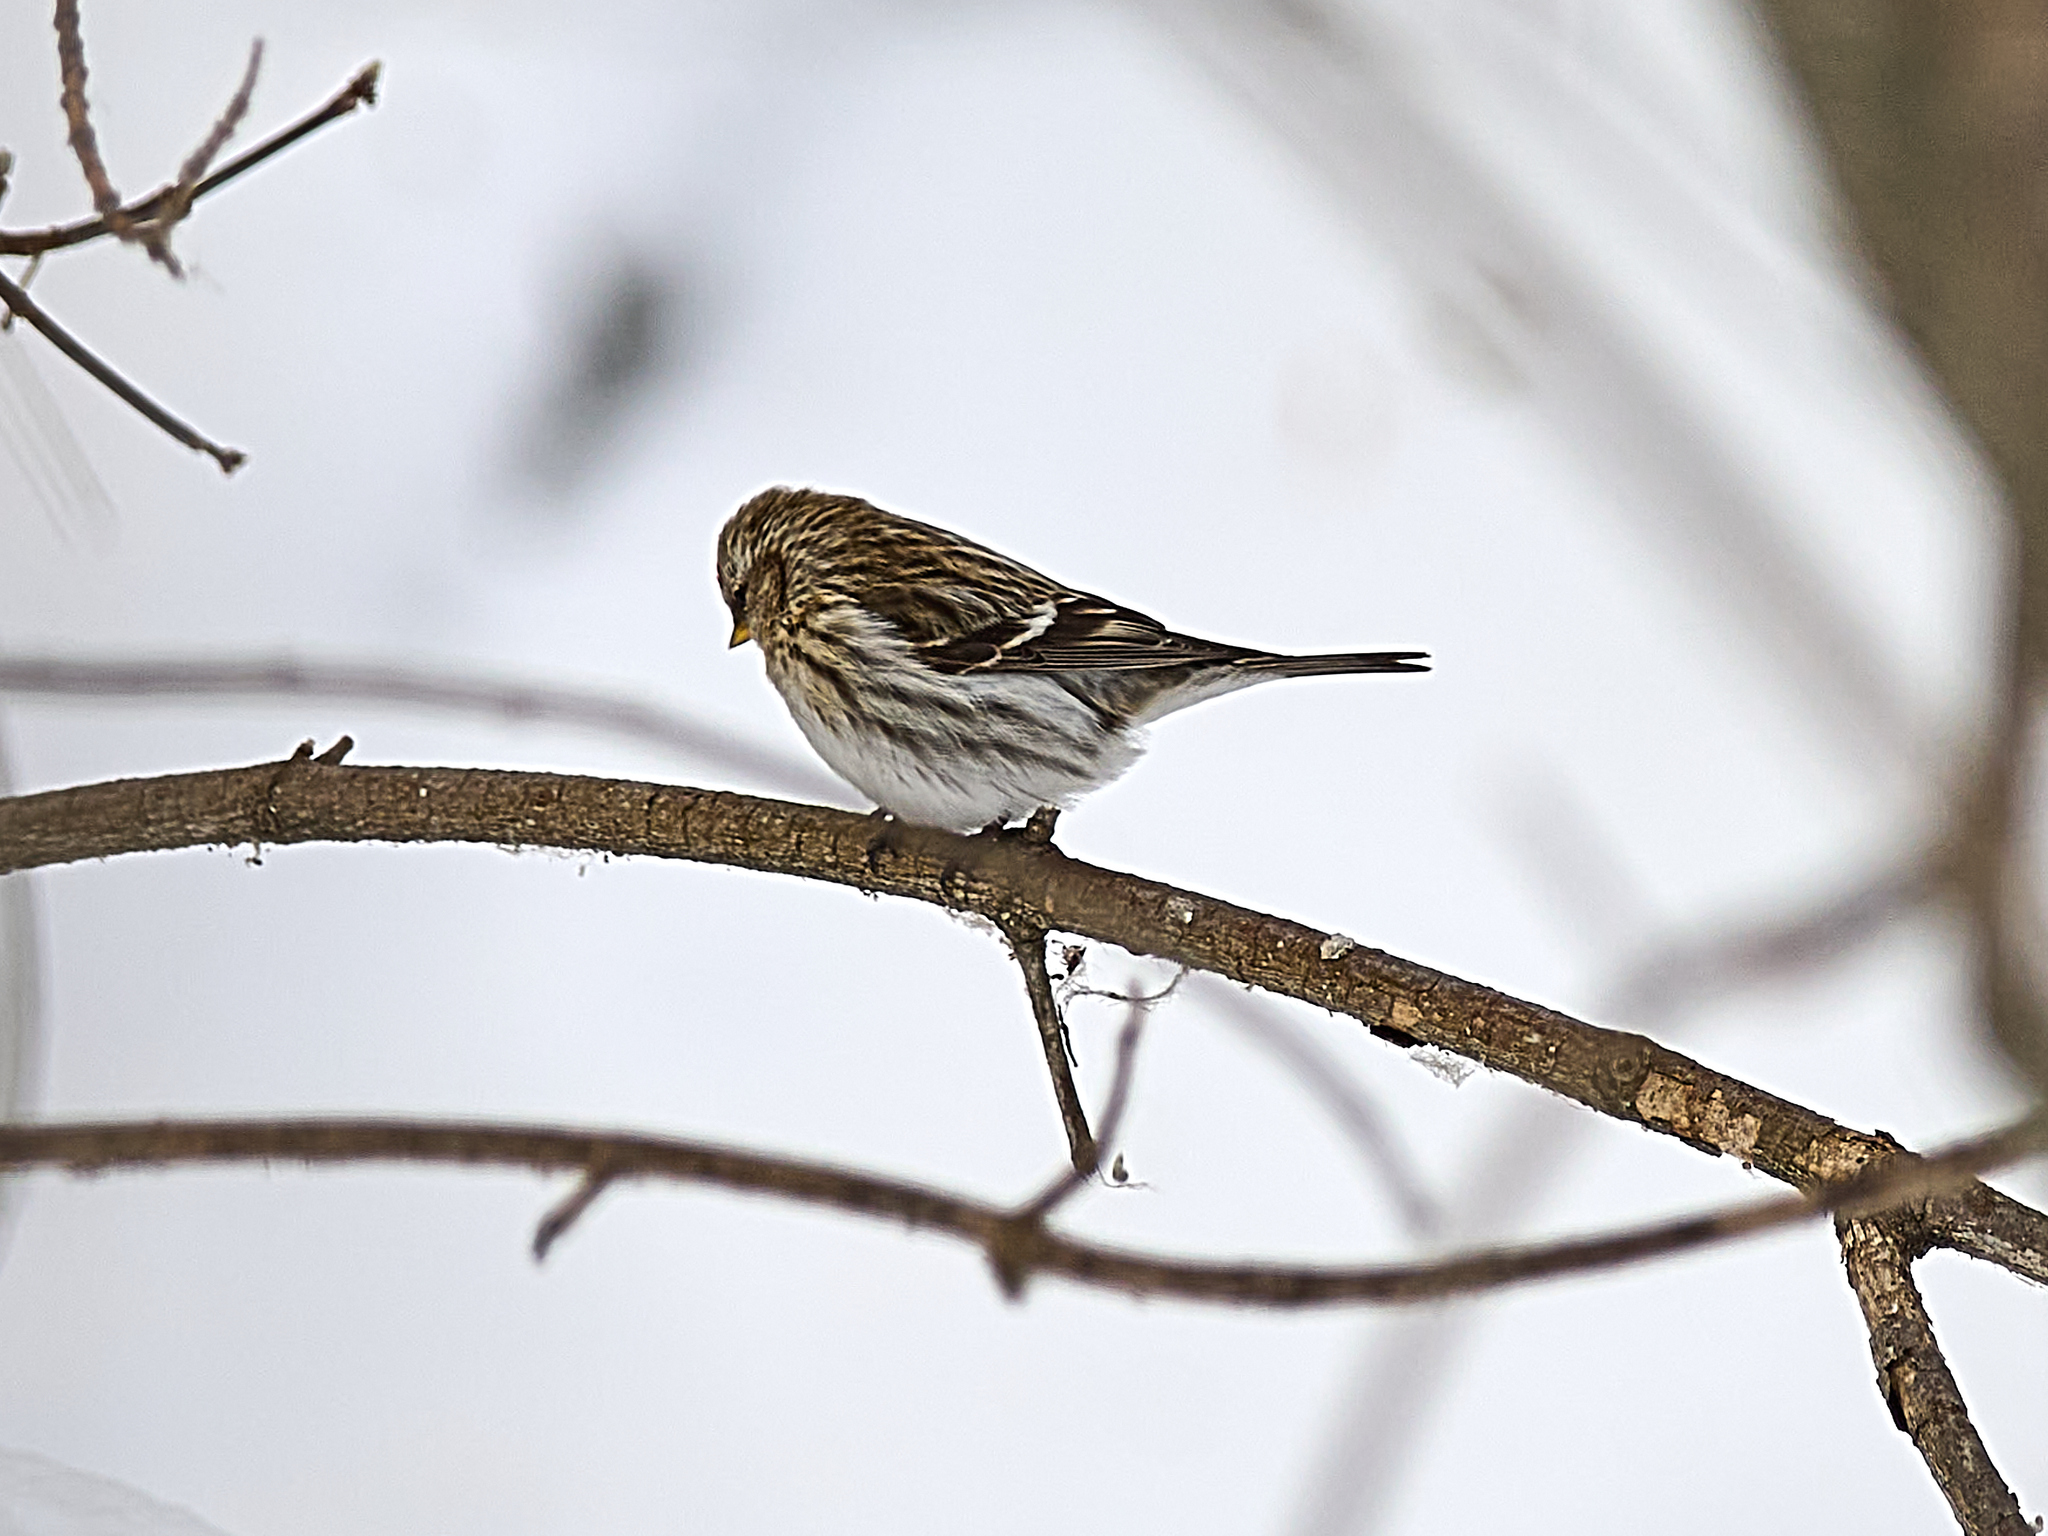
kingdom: Animalia
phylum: Chordata
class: Aves
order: Passeriformes
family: Fringillidae
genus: Acanthis
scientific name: Acanthis flammea
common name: Common redpoll
